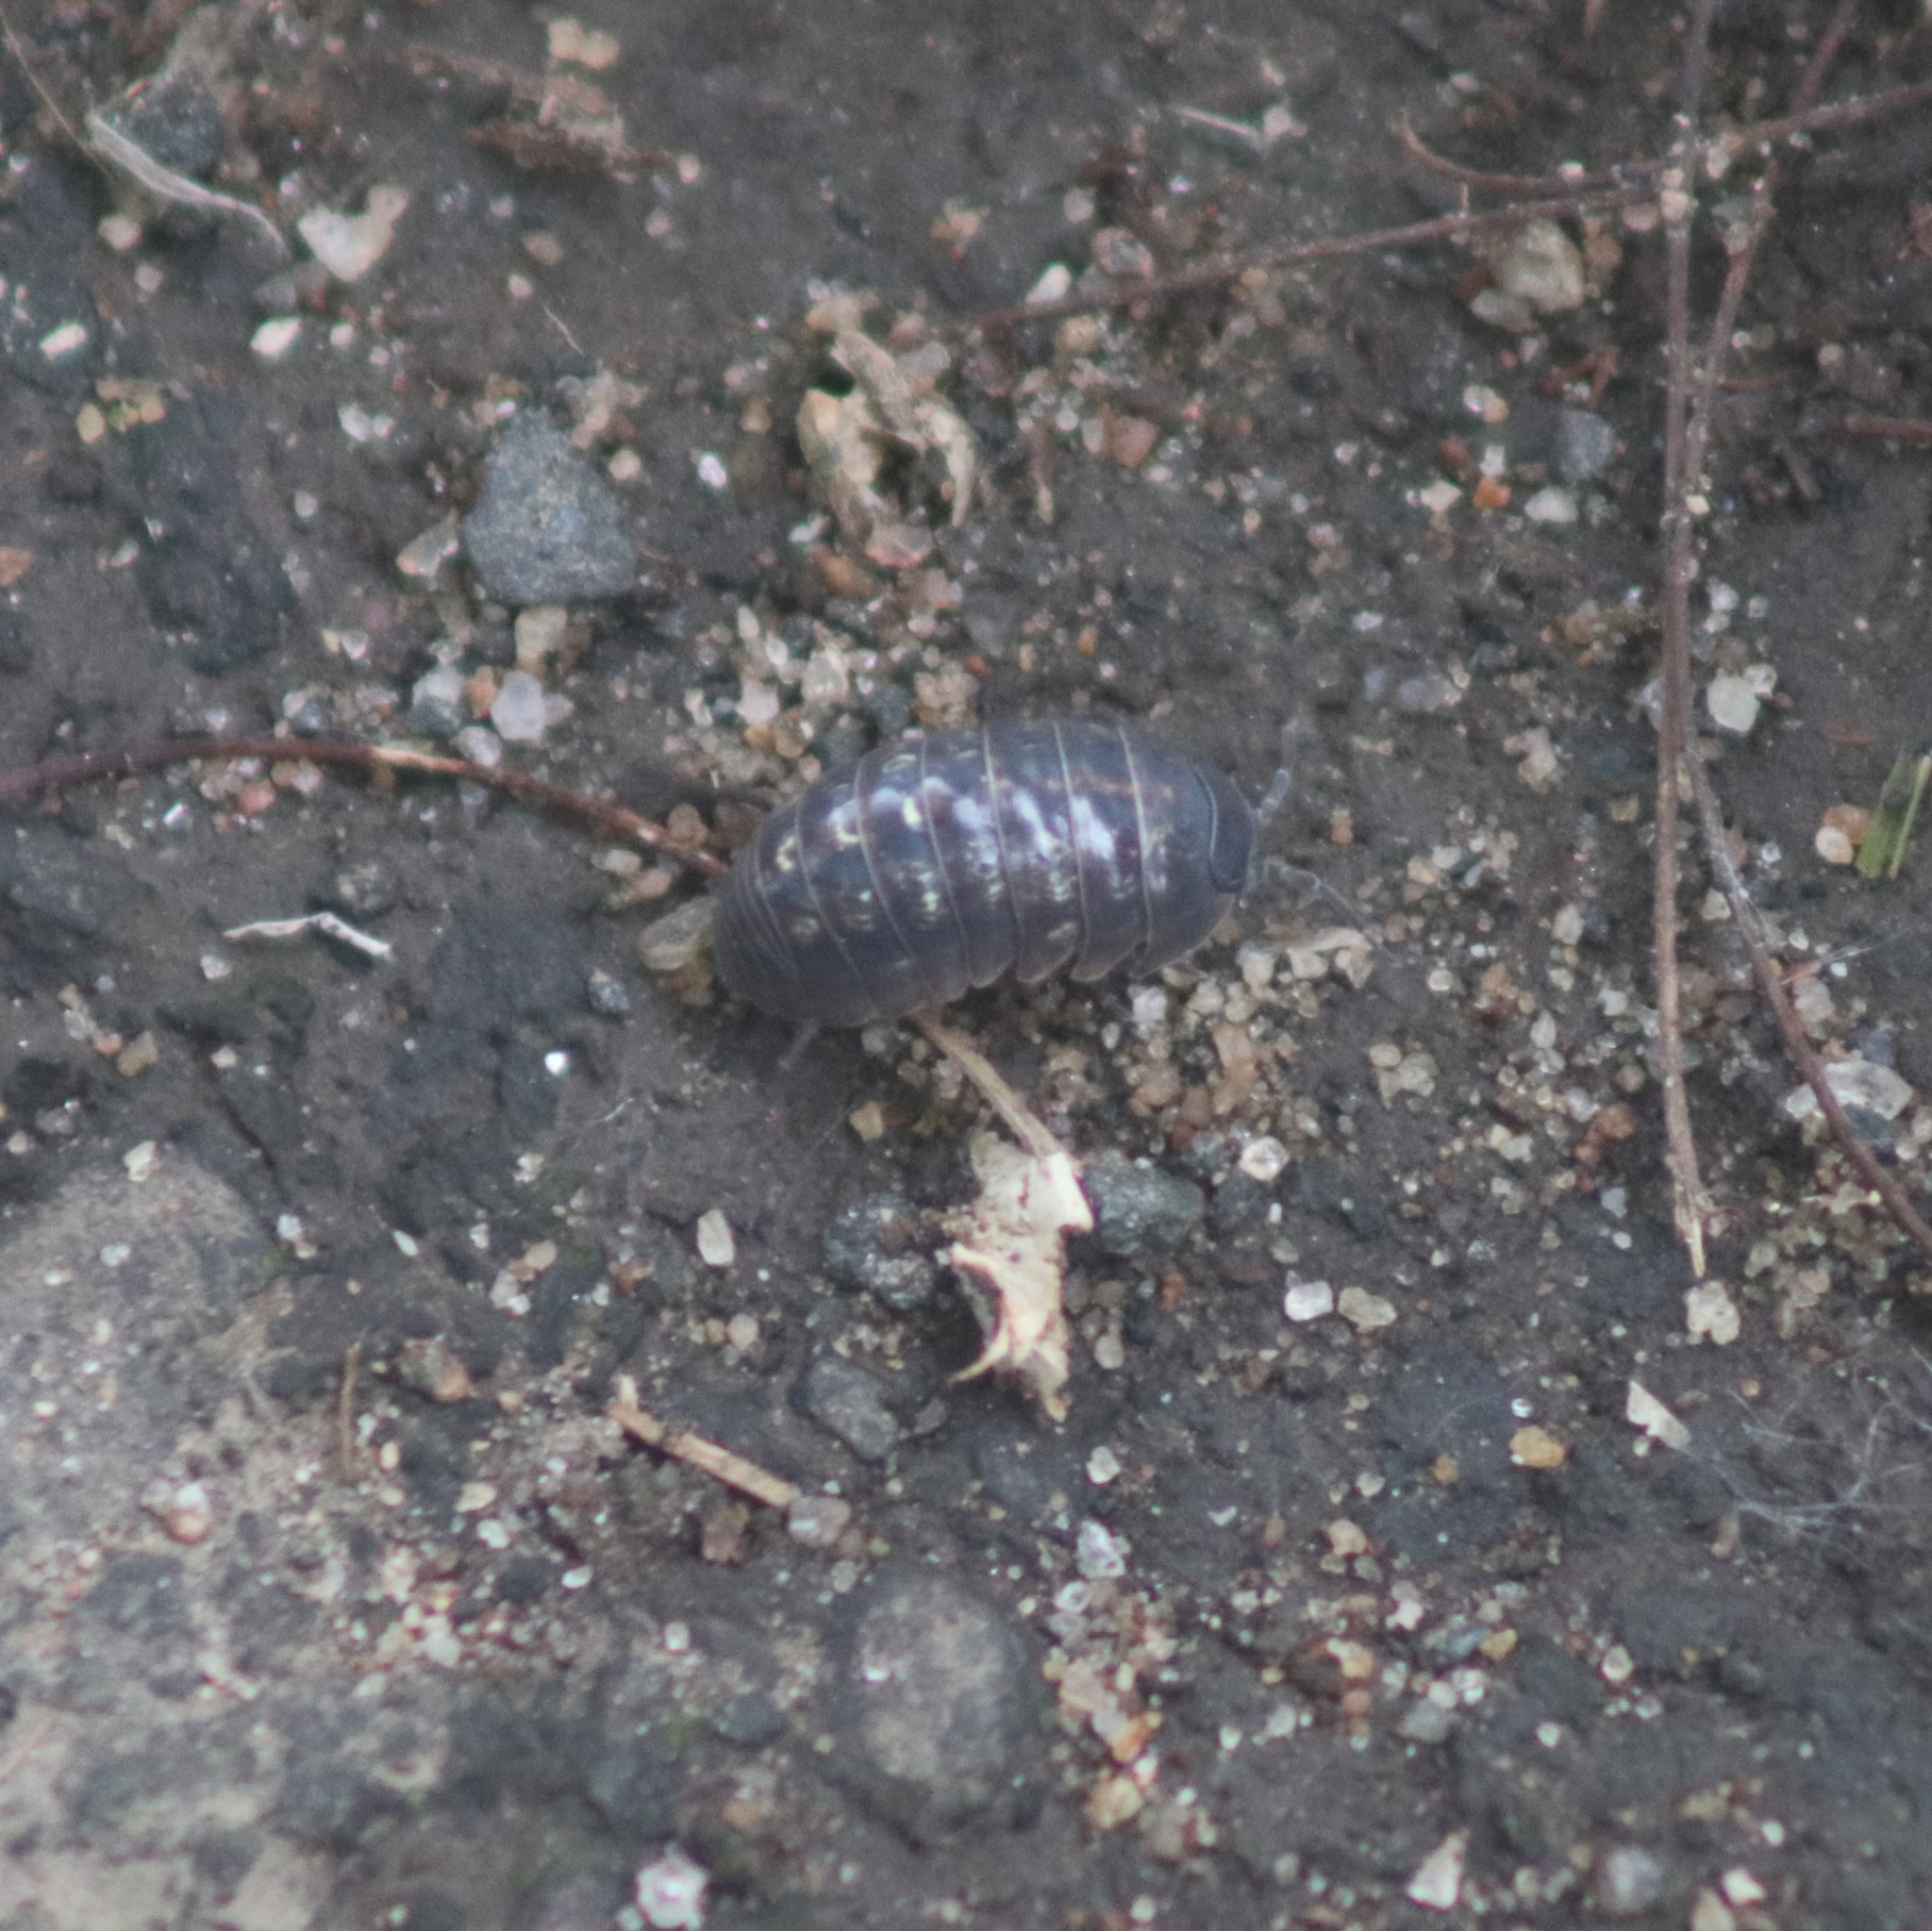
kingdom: Animalia
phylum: Arthropoda
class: Malacostraca
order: Isopoda
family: Armadillidiidae
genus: Armadillidium
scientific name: Armadillidium vulgare
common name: Common pill woodlouse
